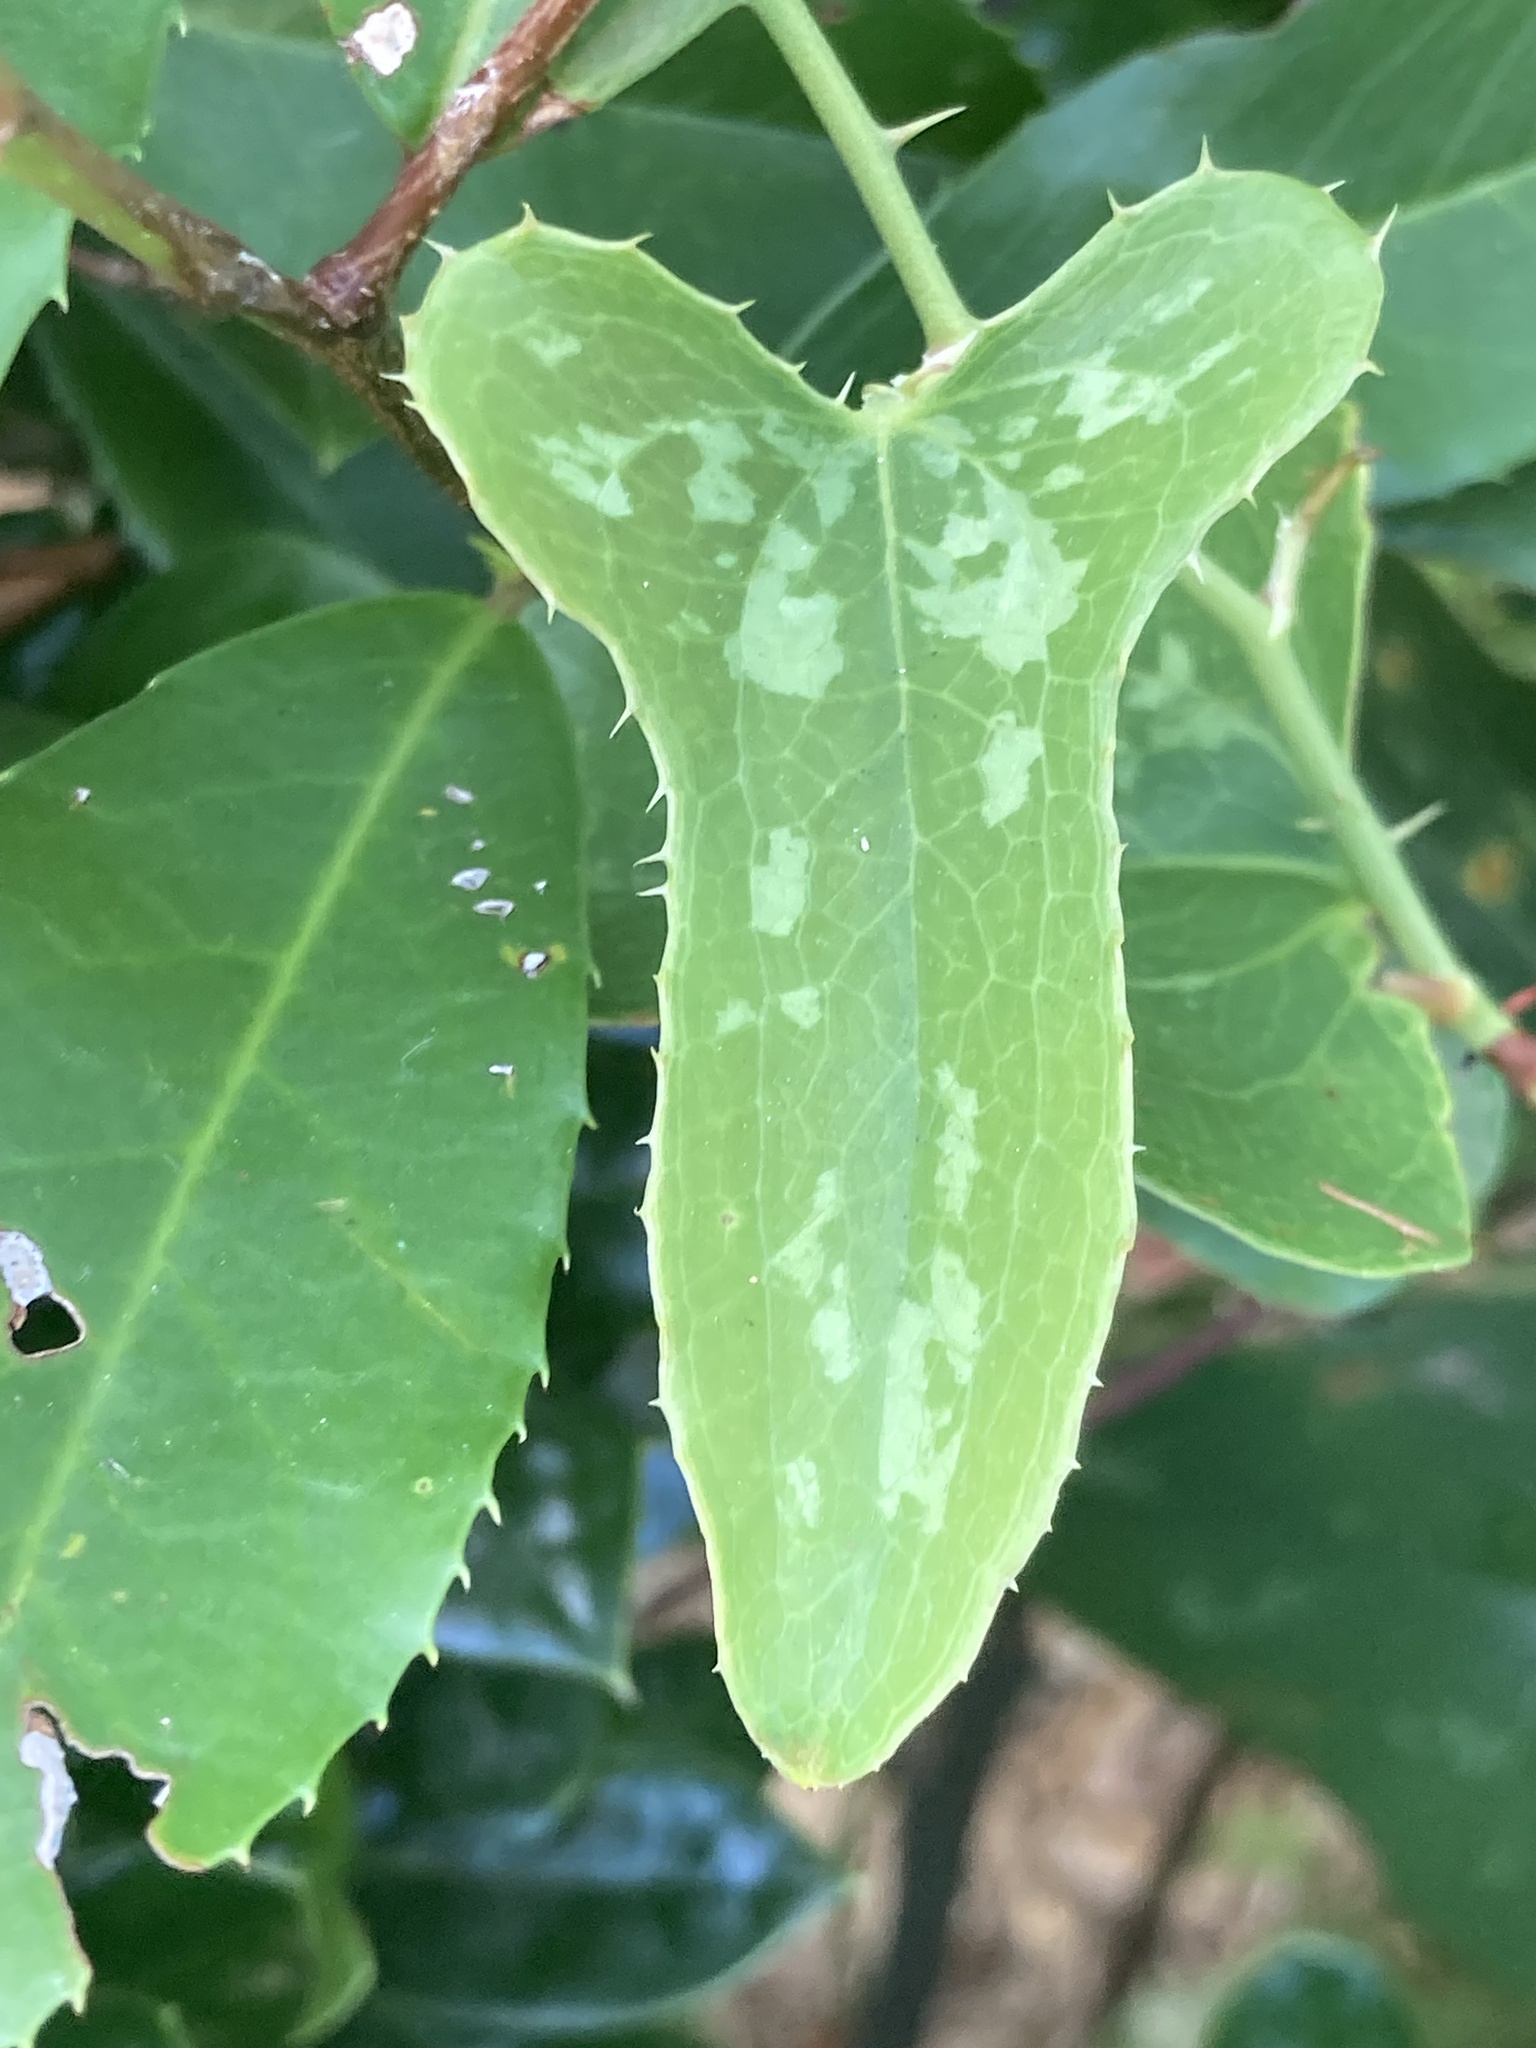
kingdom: Plantae
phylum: Tracheophyta
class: Liliopsida
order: Liliales
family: Smilacaceae
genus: Smilax
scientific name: Smilax bona-nox
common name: Catbrier
